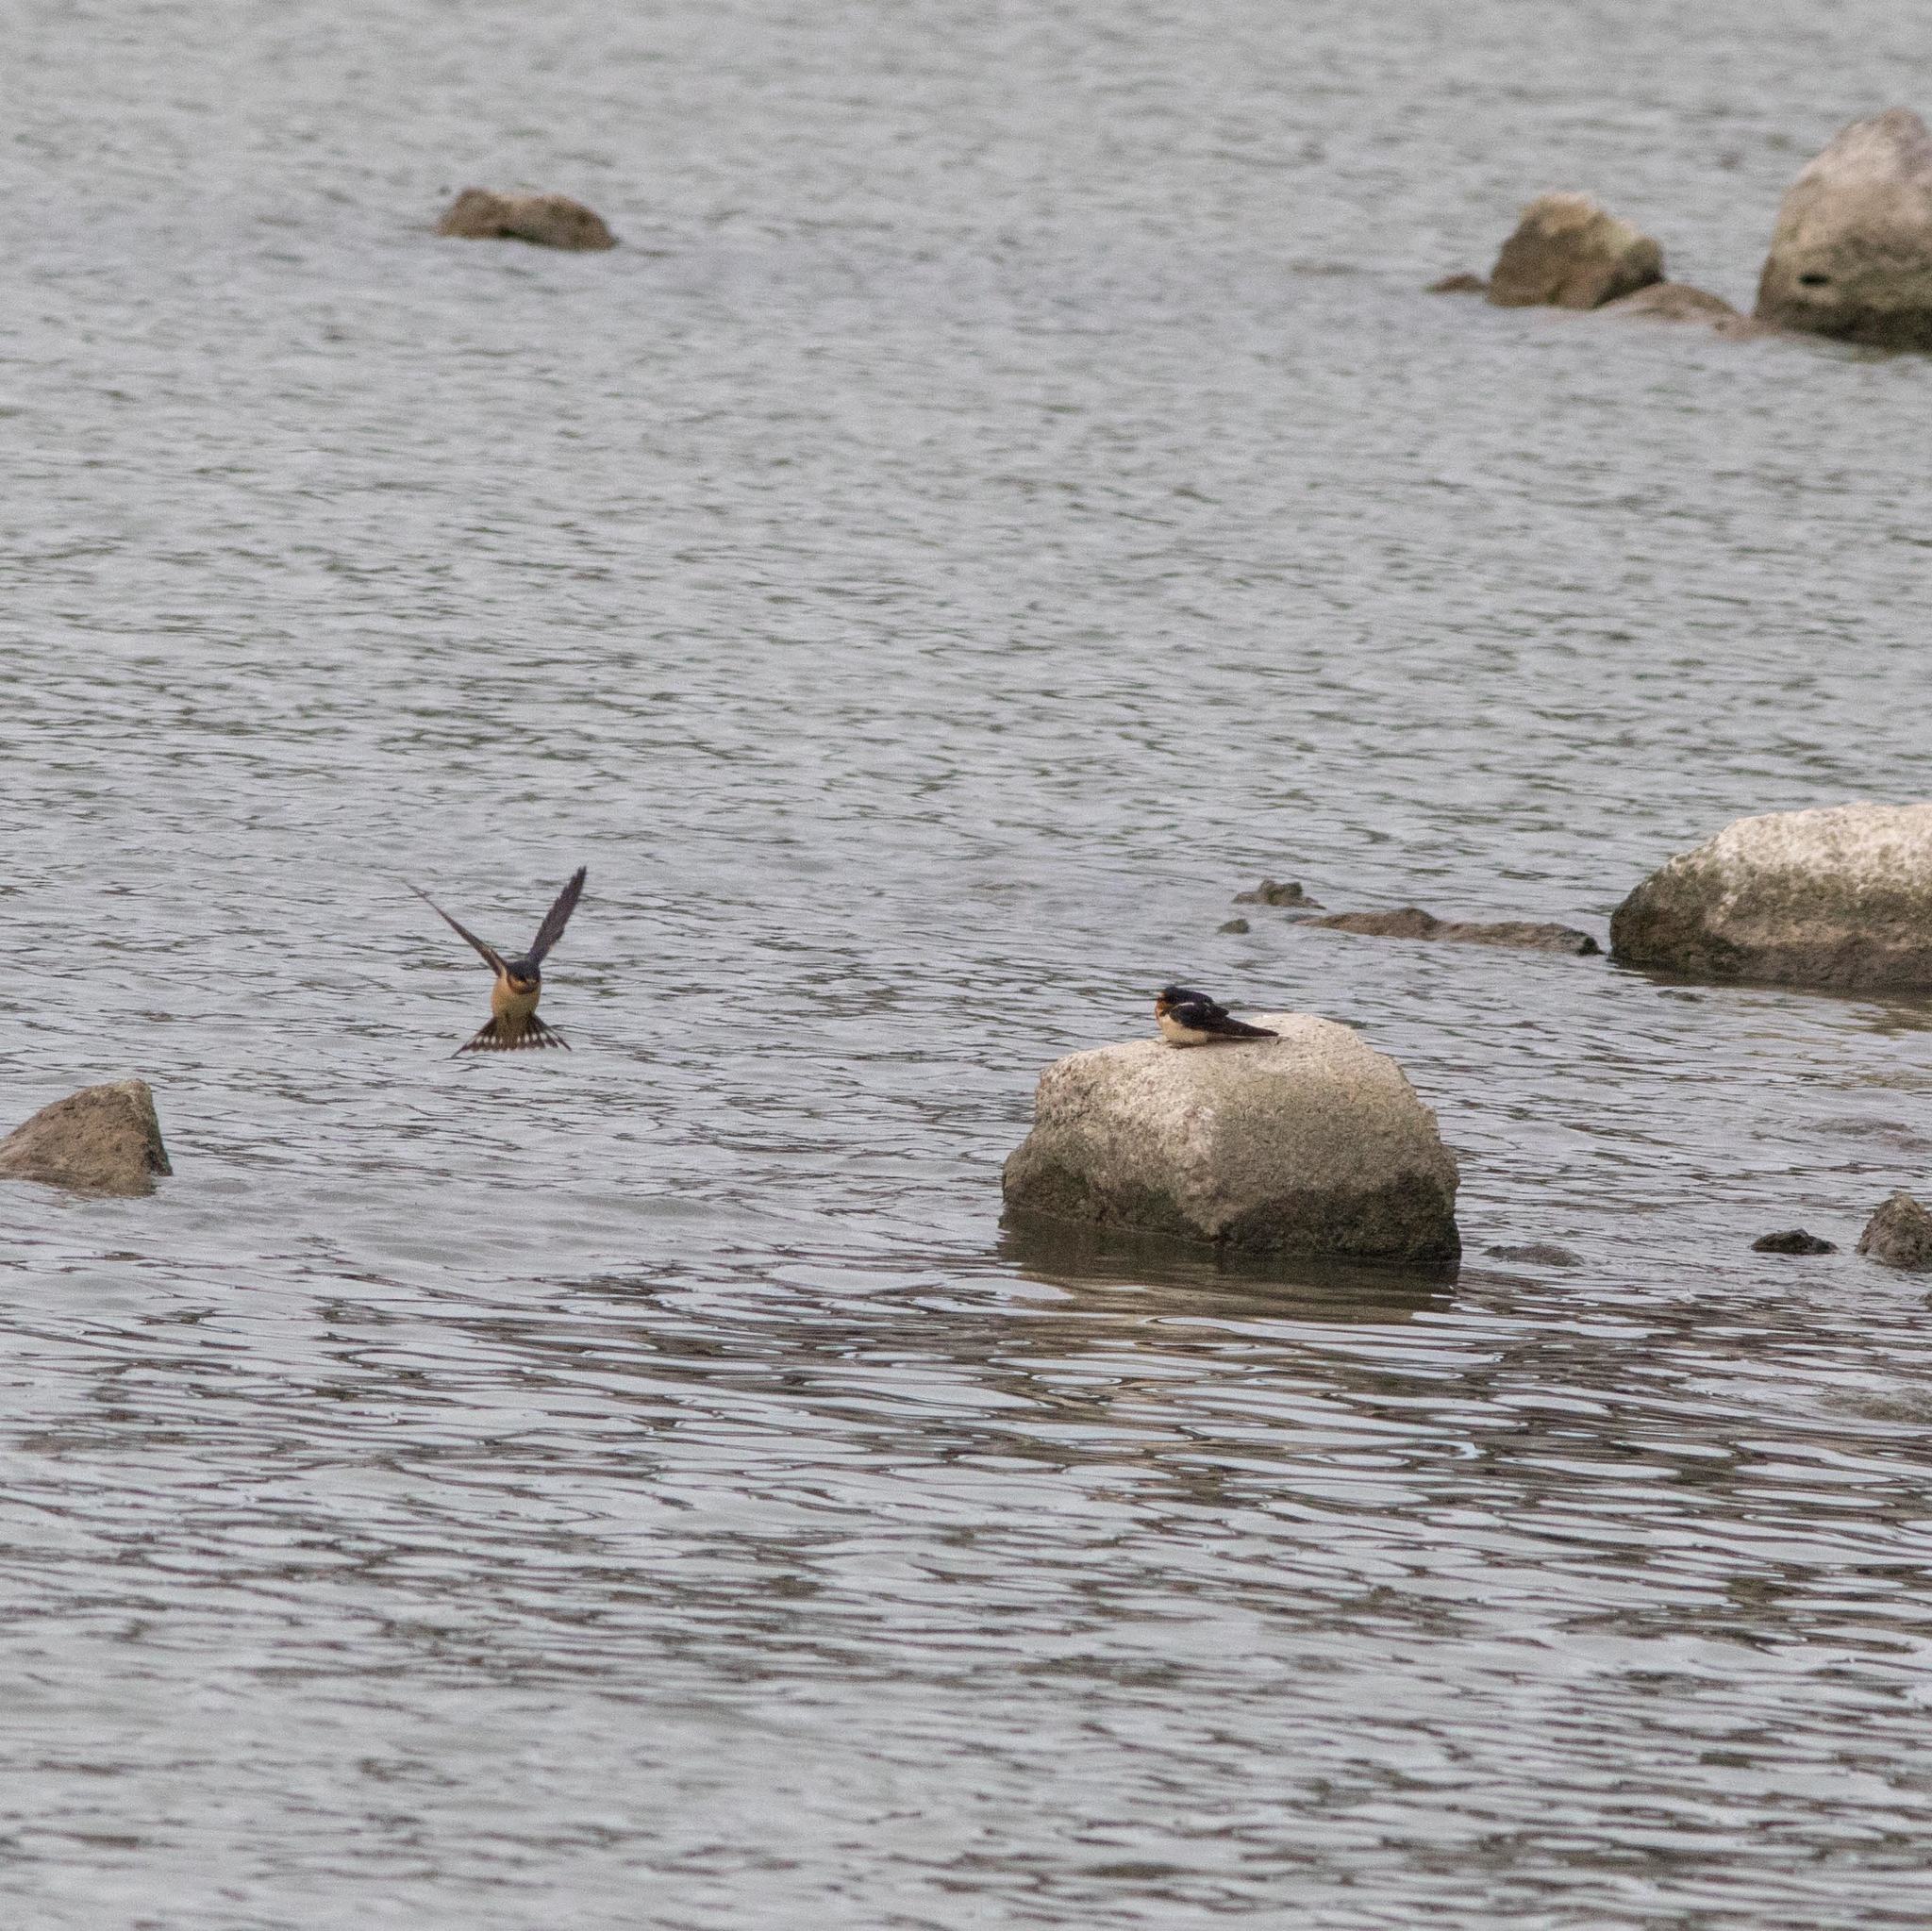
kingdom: Animalia
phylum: Chordata
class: Aves
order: Passeriformes
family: Hirundinidae
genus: Hirundo
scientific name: Hirundo rustica
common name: Barn swallow
